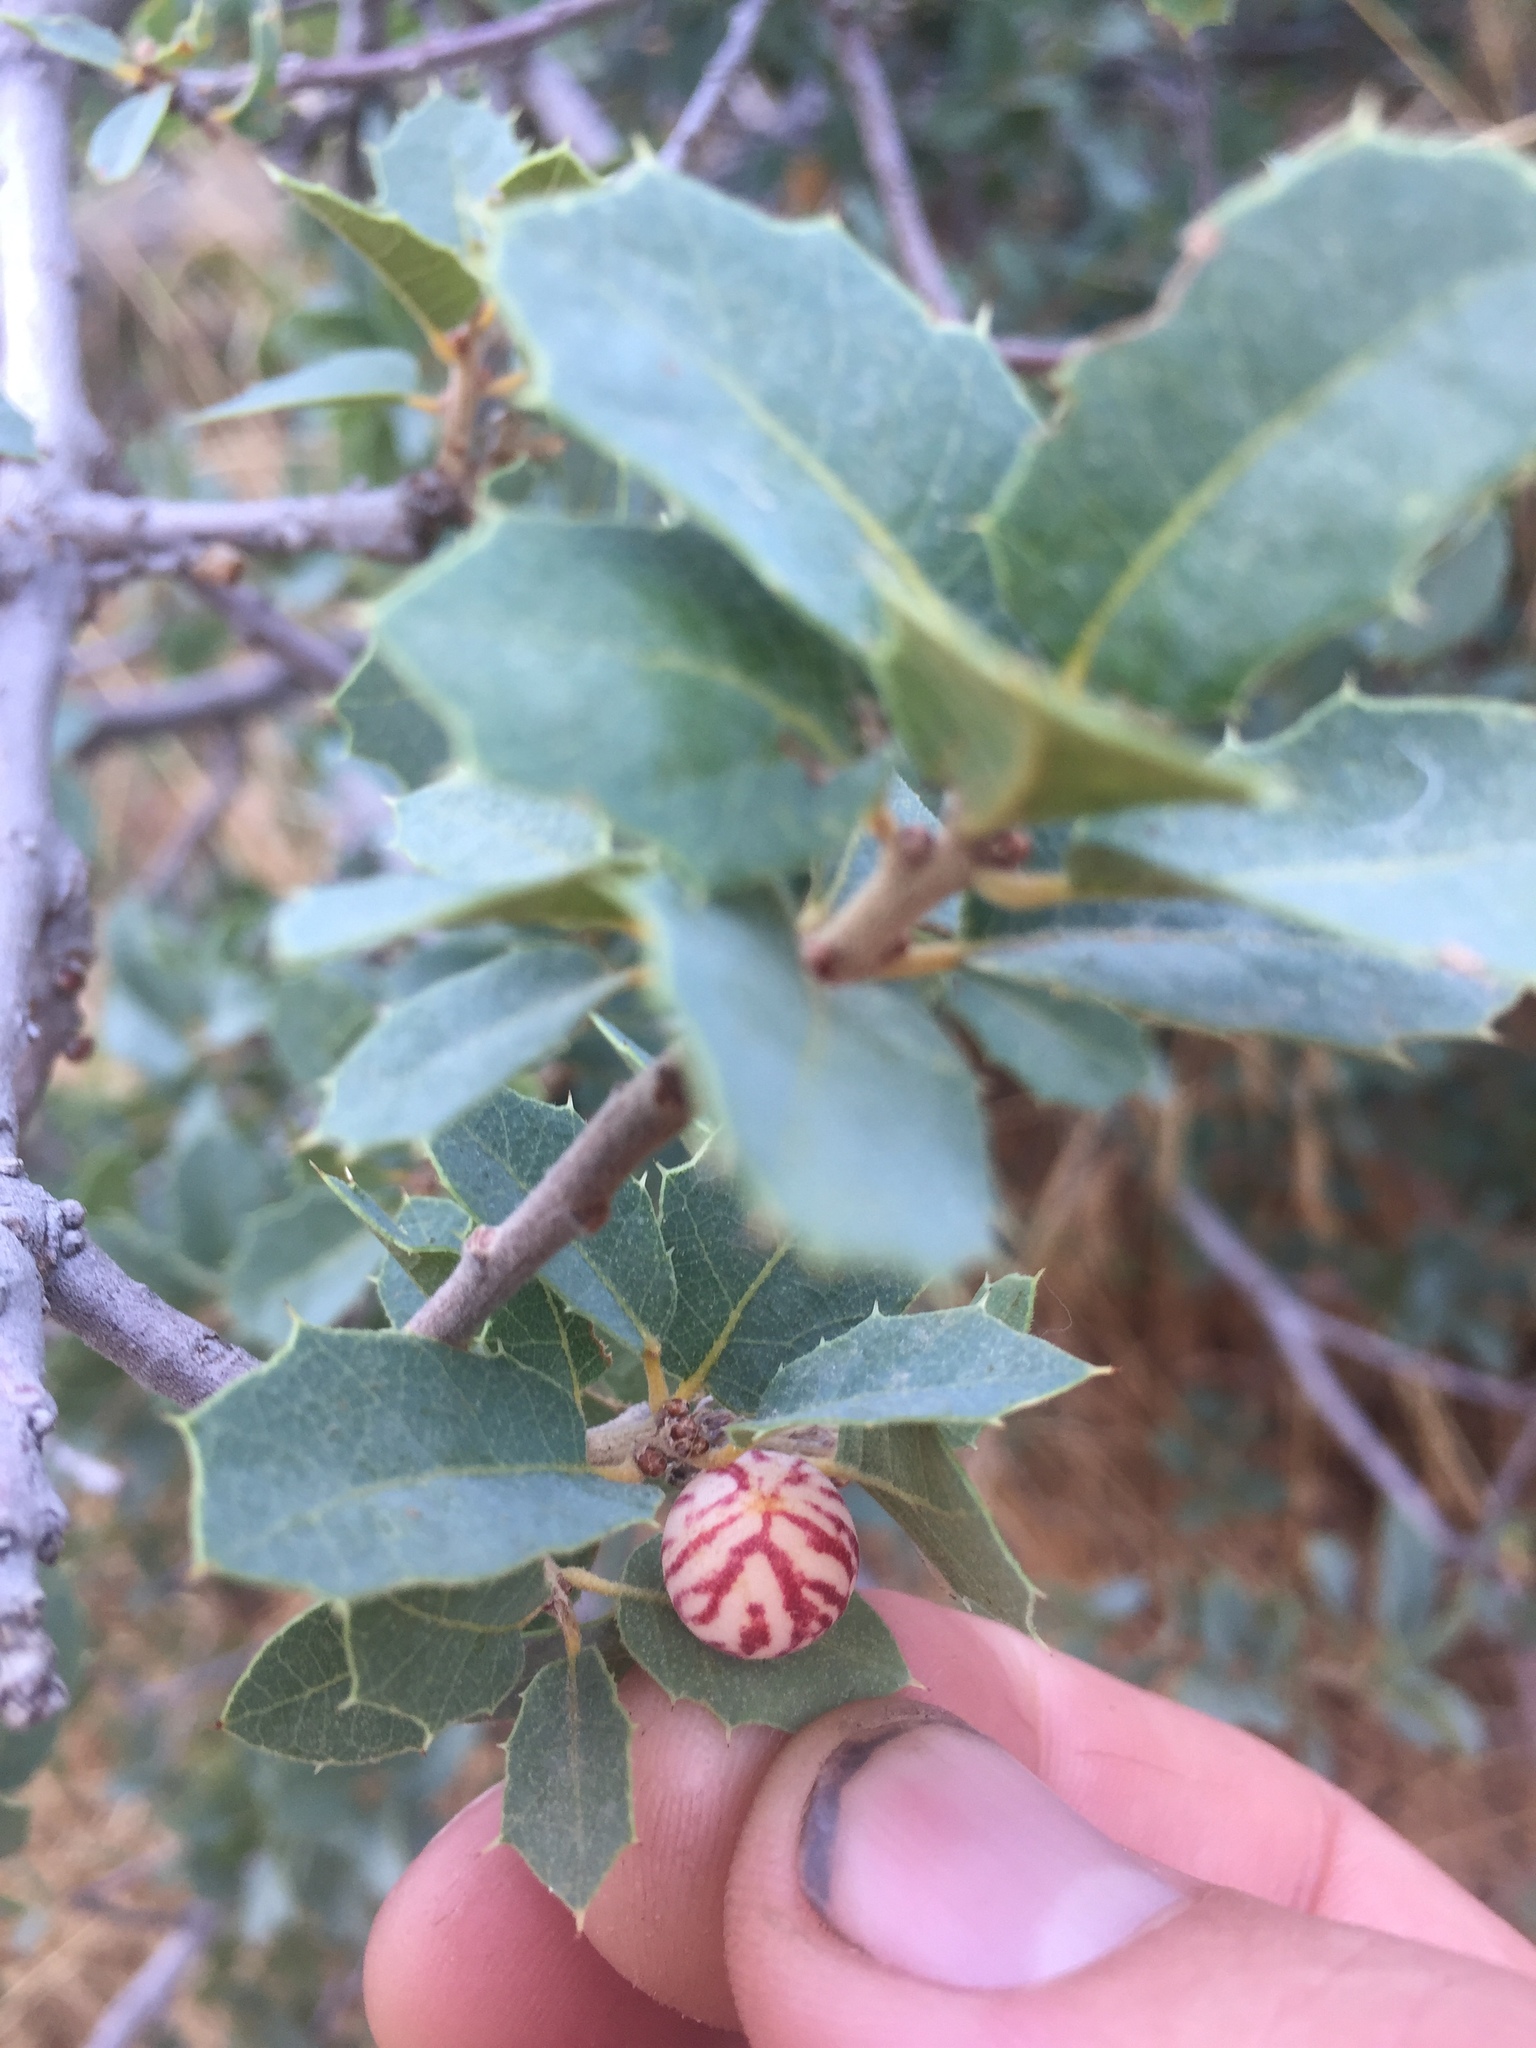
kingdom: Plantae
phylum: Tracheophyta
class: Magnoliopsida
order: Fagales
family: Fagaceae
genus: Quercus
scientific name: Quercus turbinella
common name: Sonoran scrub oak
